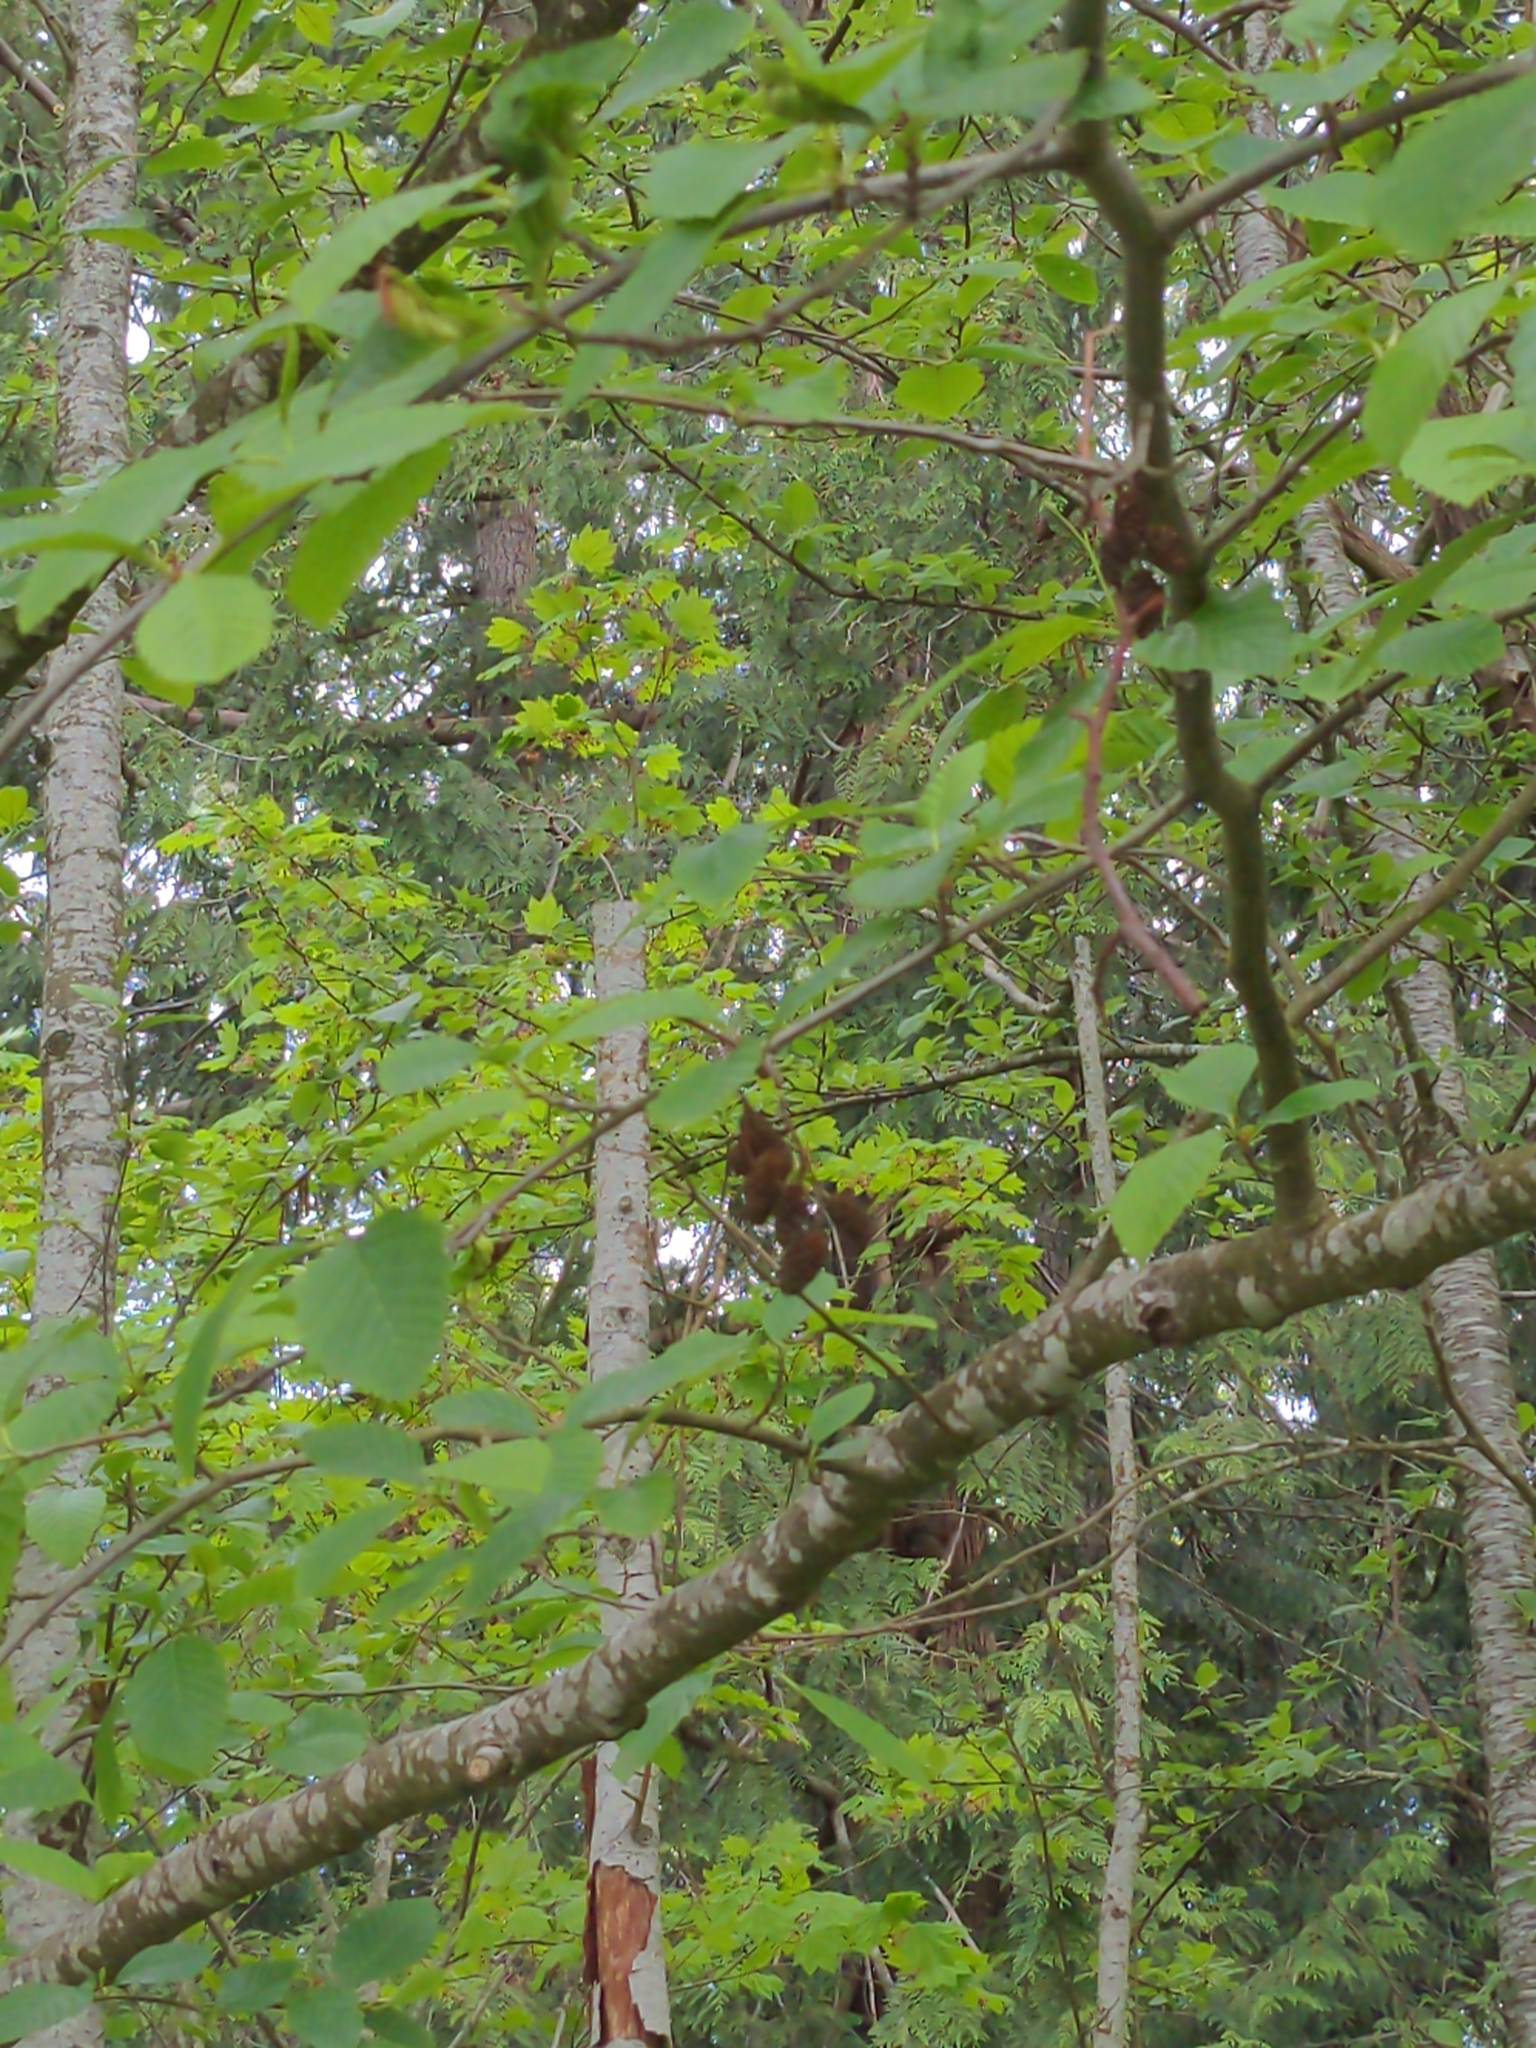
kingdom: Plantae
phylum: Tracheophyta
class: Magnoliopsida
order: Fagales
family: Betulaceae
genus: Alnus
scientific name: Alnus rubra
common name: Red alder
